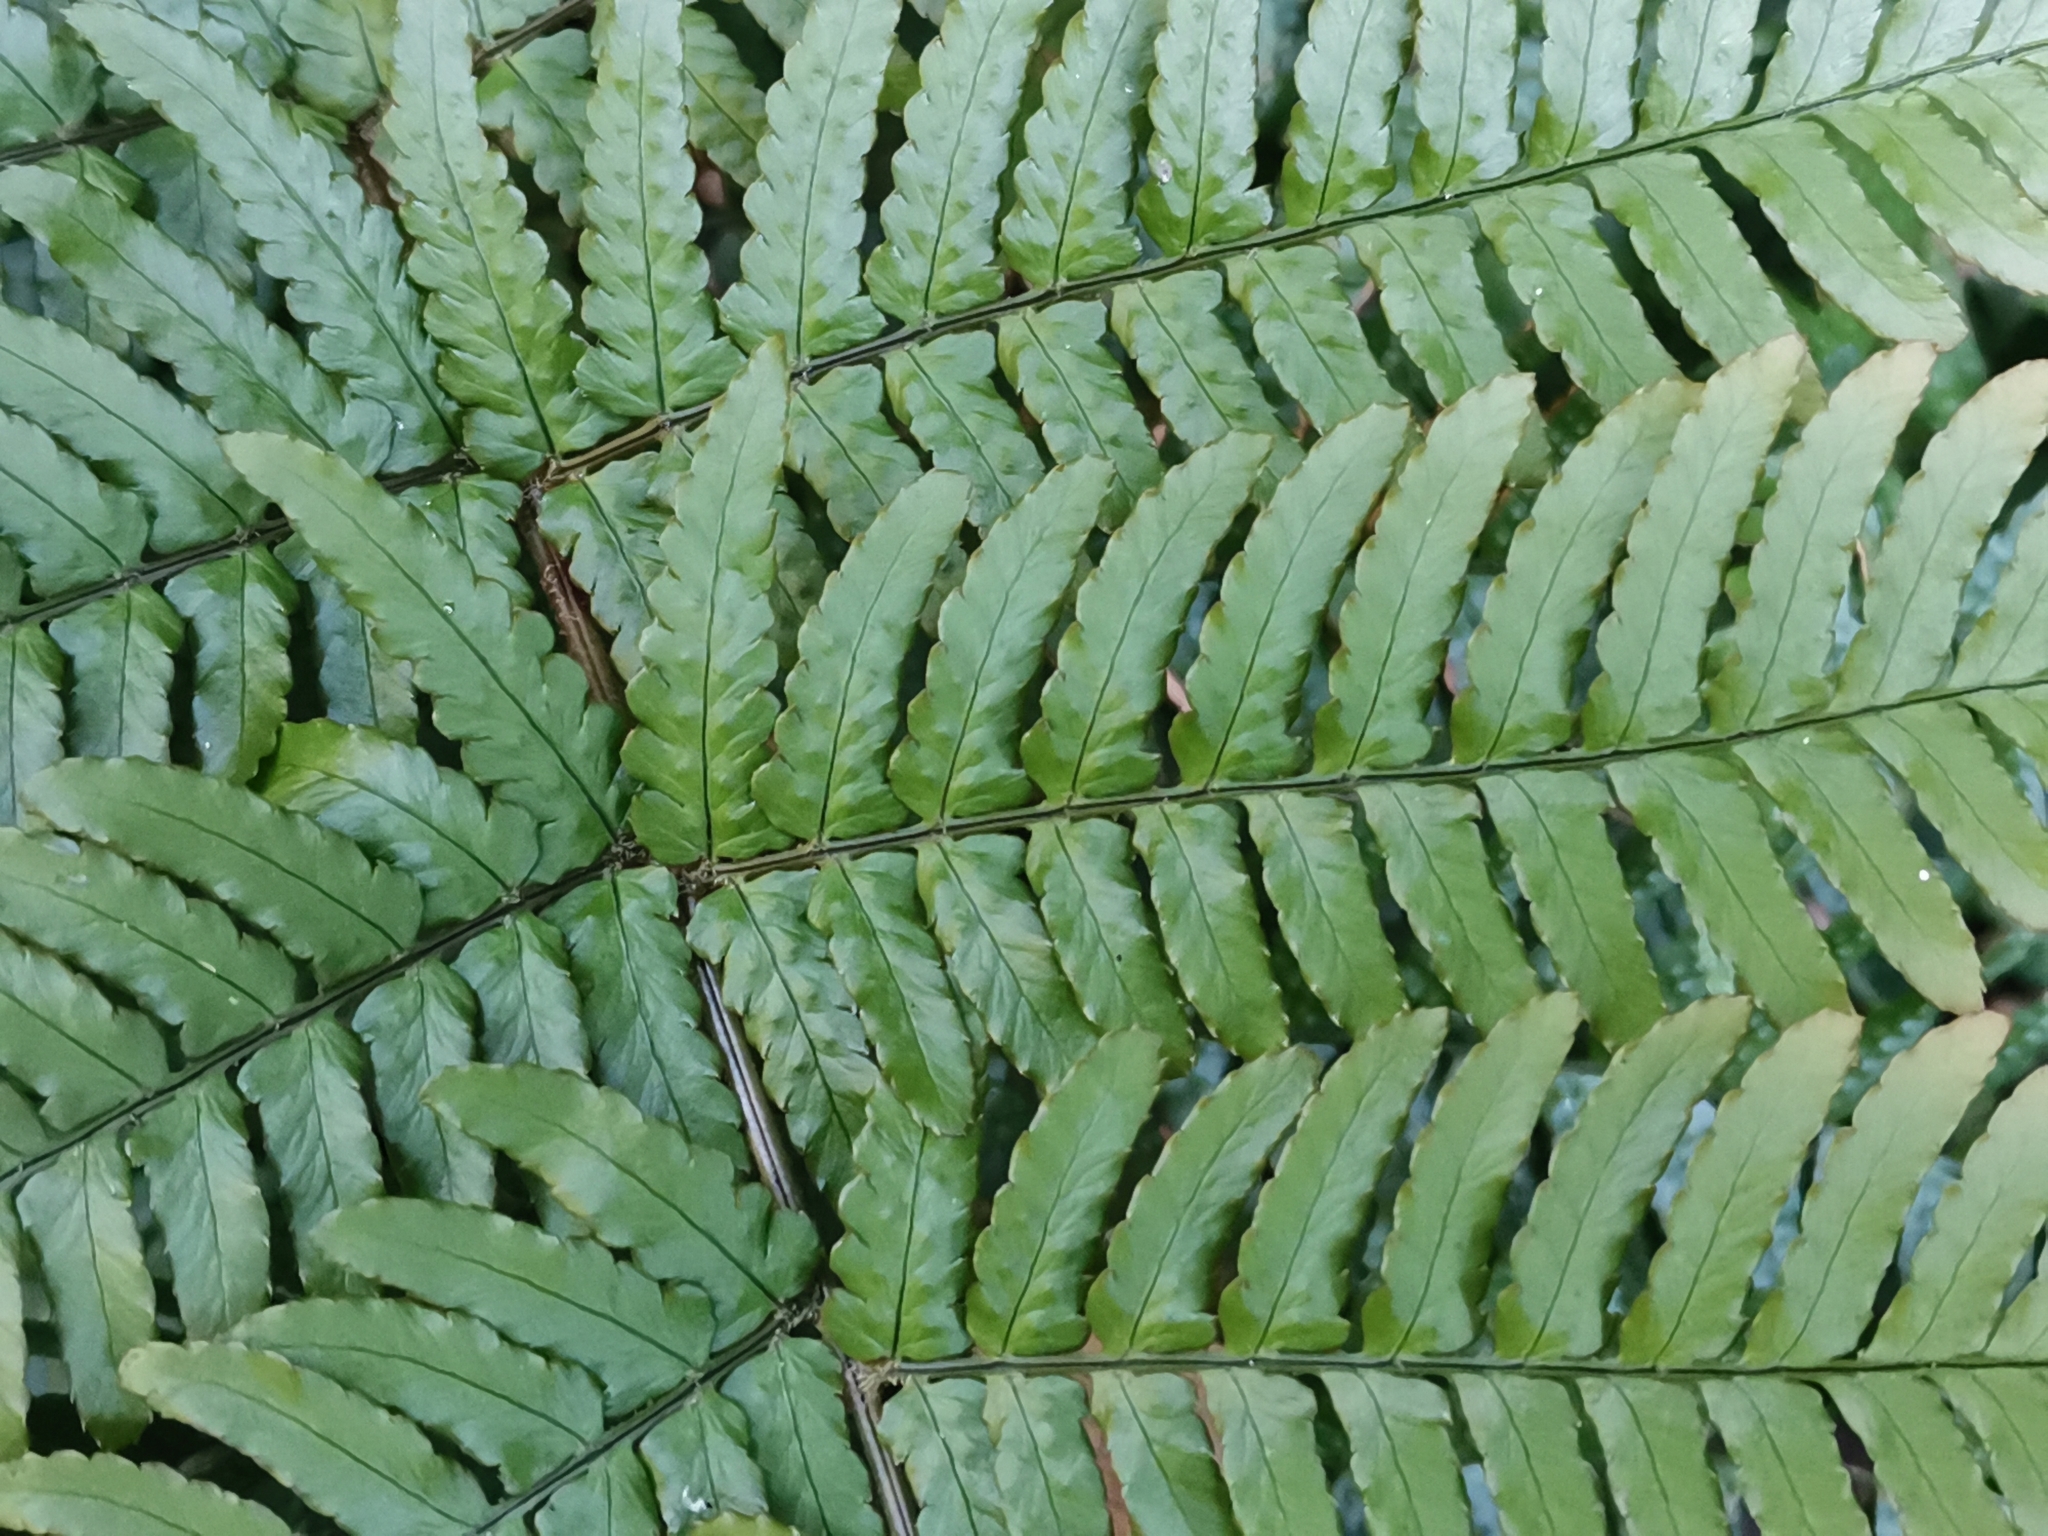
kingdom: Plantae
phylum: Tracheophyta
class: Polypodiopsida
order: Polypodiales
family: Dryopteridaceae
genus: Dryopteris
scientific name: Dryopteris erythrosora
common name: Autumn fern
